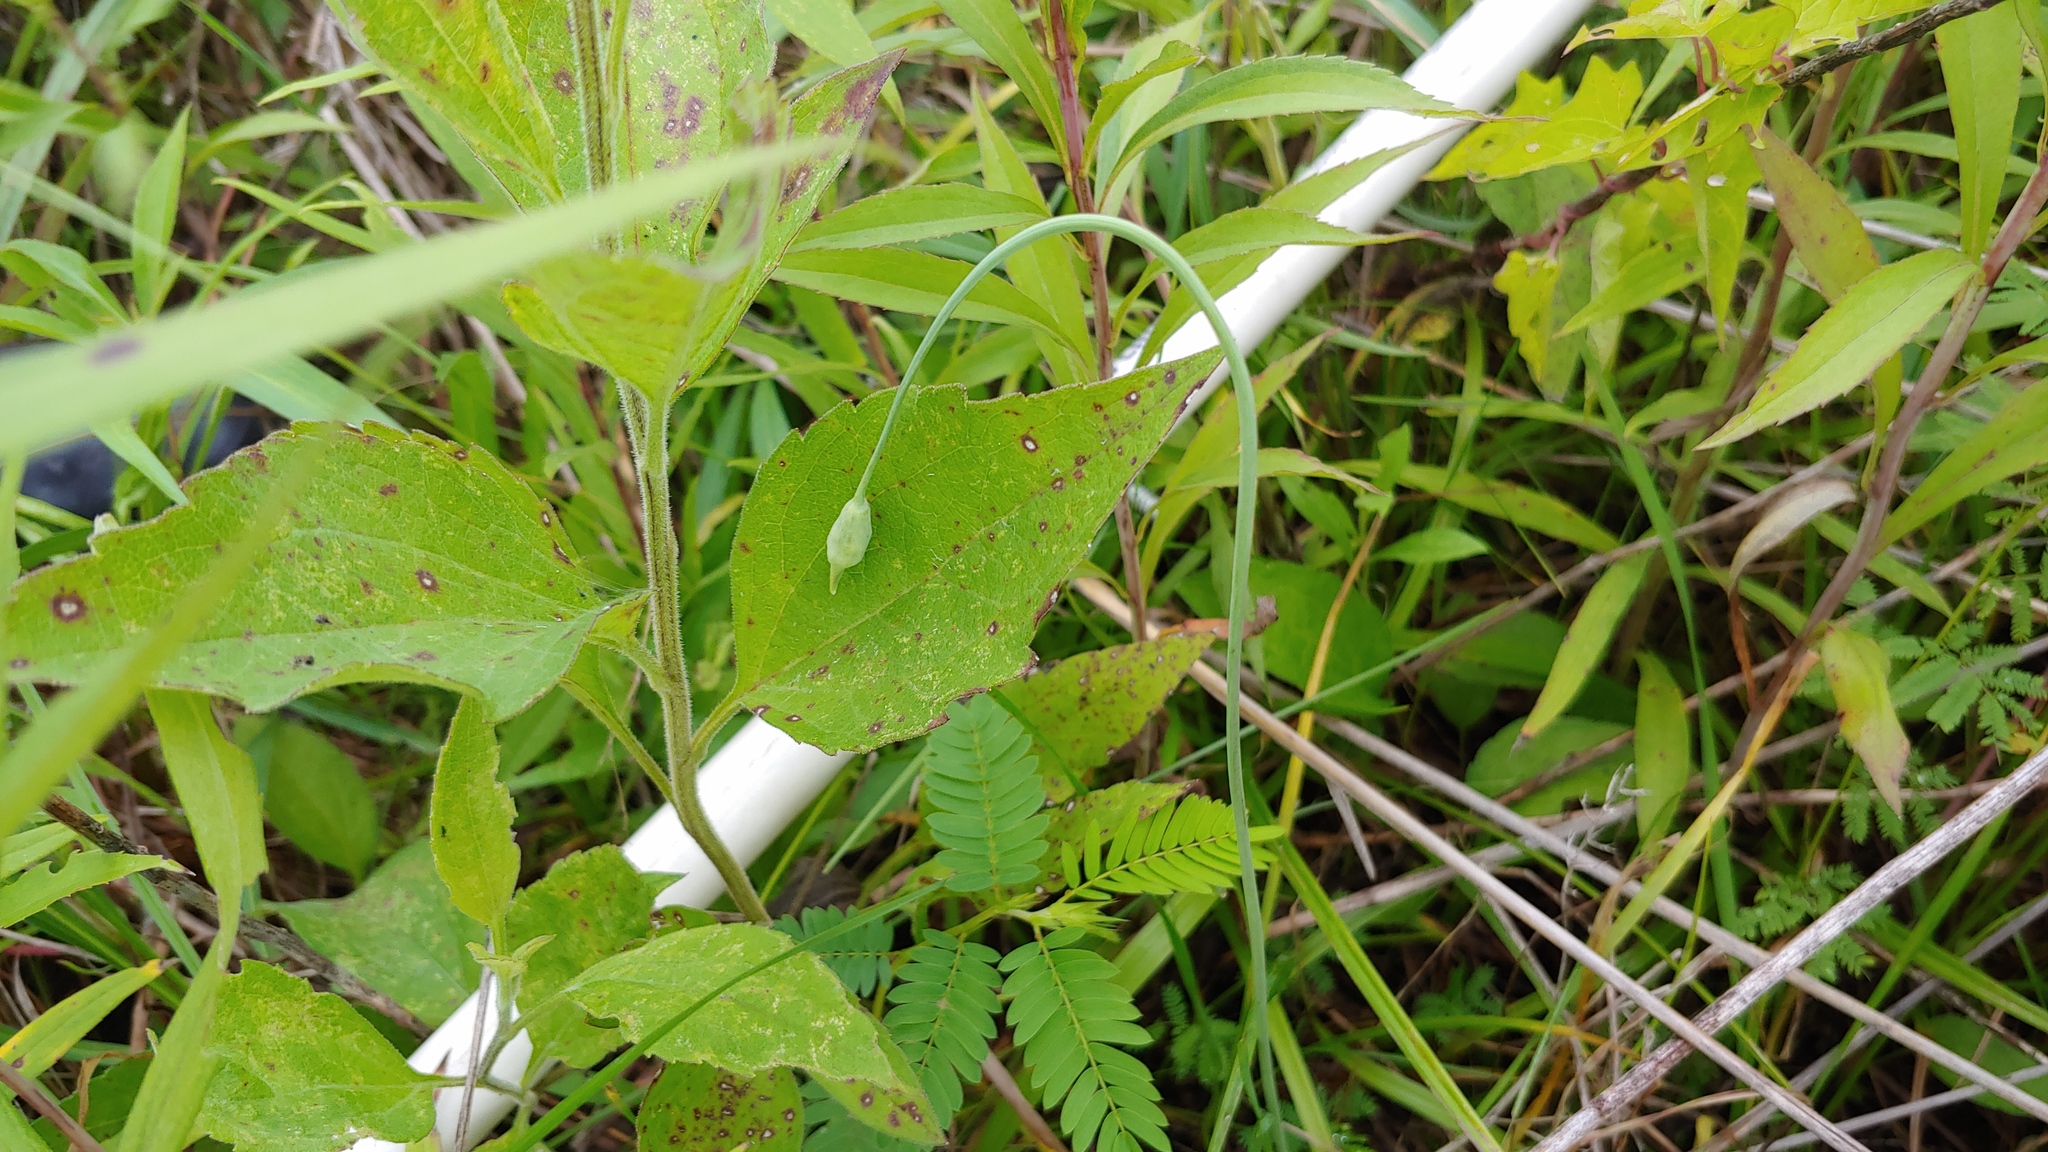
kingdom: Plantae
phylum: Tracheophyta
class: Liliopsida
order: Asparagales
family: Amaryllidaceae
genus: Allium
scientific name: Allium cernuum
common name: Nodding onion
